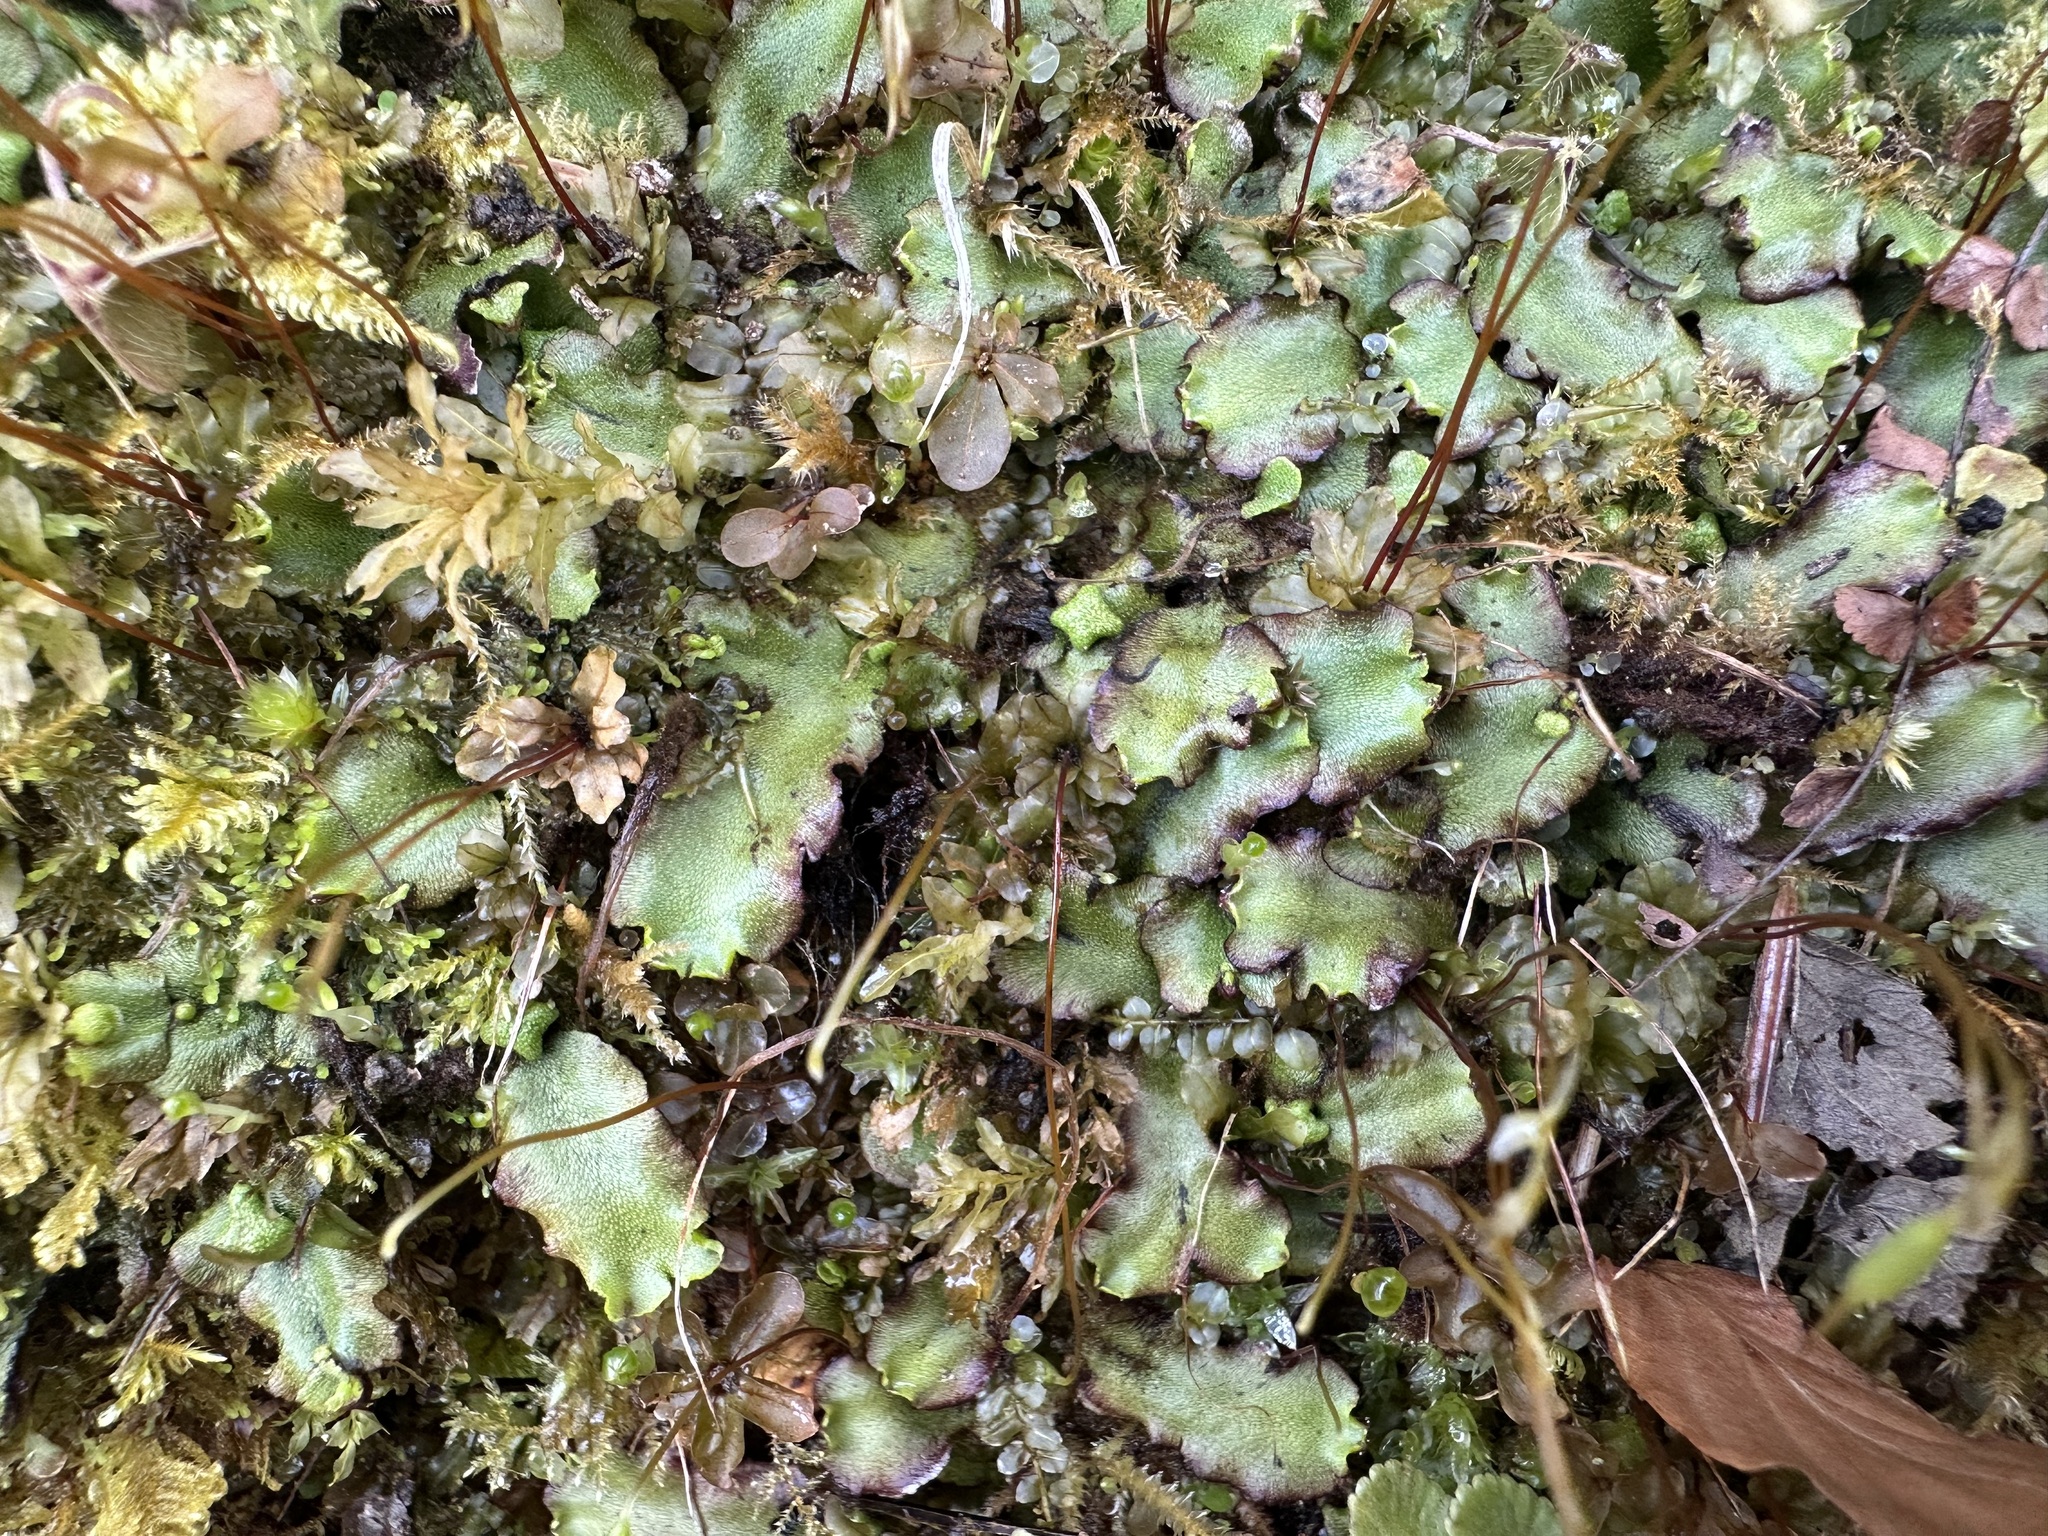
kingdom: Plantae
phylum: Marchantiophyta
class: Marchantiopsida
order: Marchantiales
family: Marchantiaceae
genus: Marchantia
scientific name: Marchantia quadrata
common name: Narrow mushroom-headed liverwort
